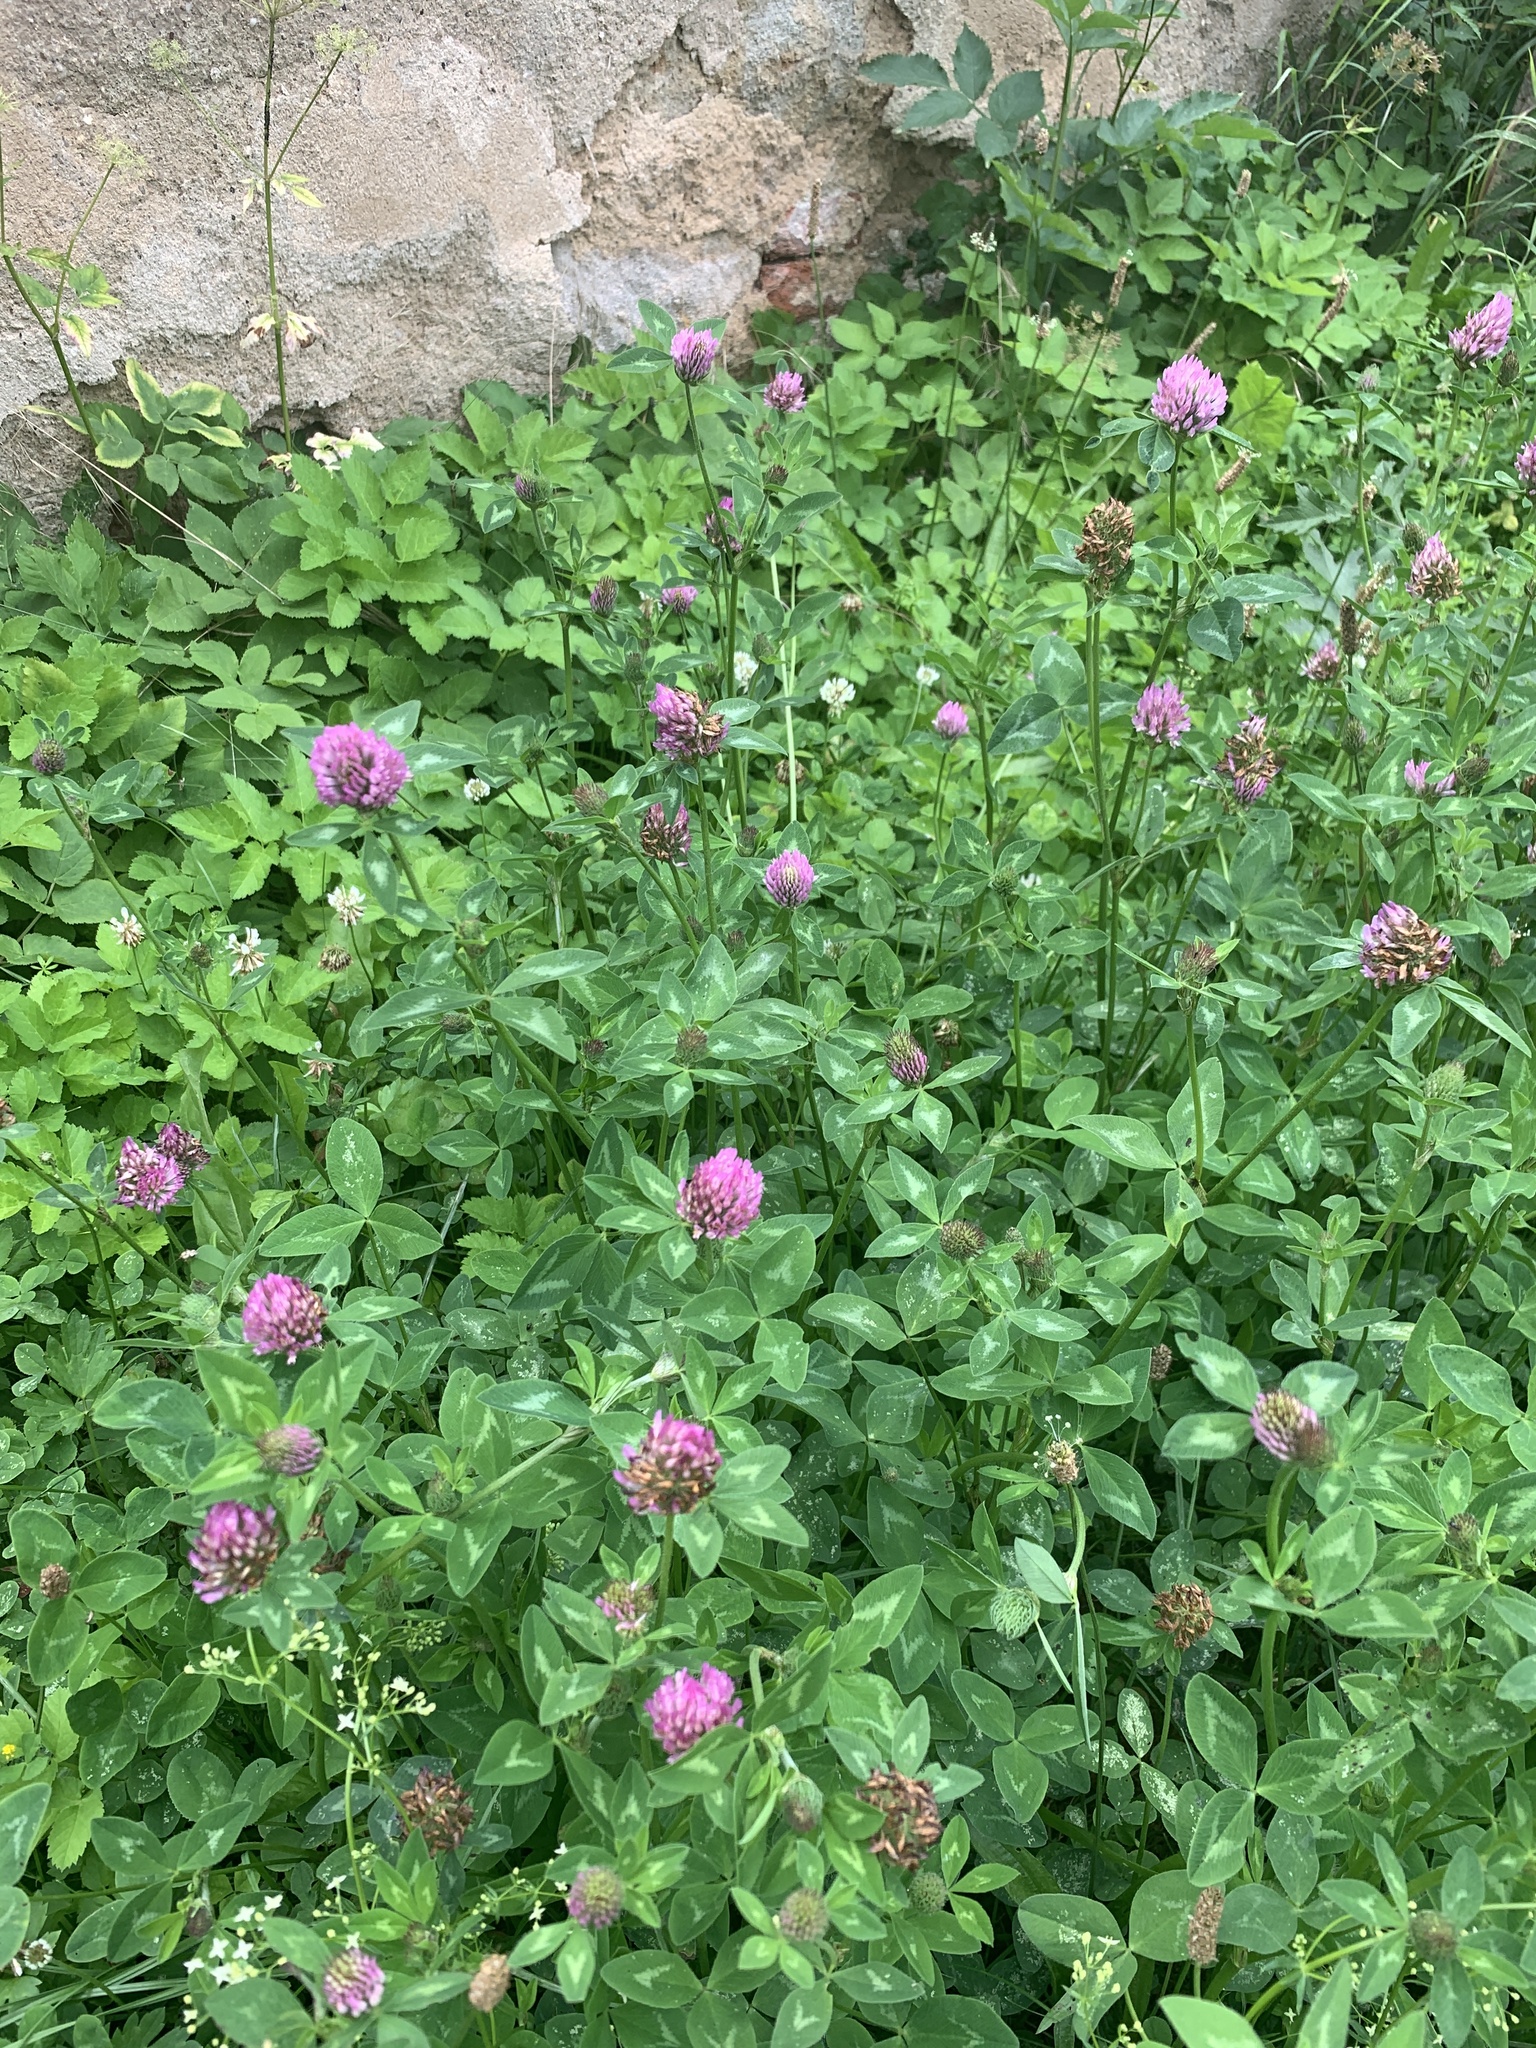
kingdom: Plantae
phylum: Tracheophyta
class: Magnoliopsida
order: Fabales
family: Fabaceae
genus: Trifolium
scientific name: Trifolium pratense
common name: Red clover
